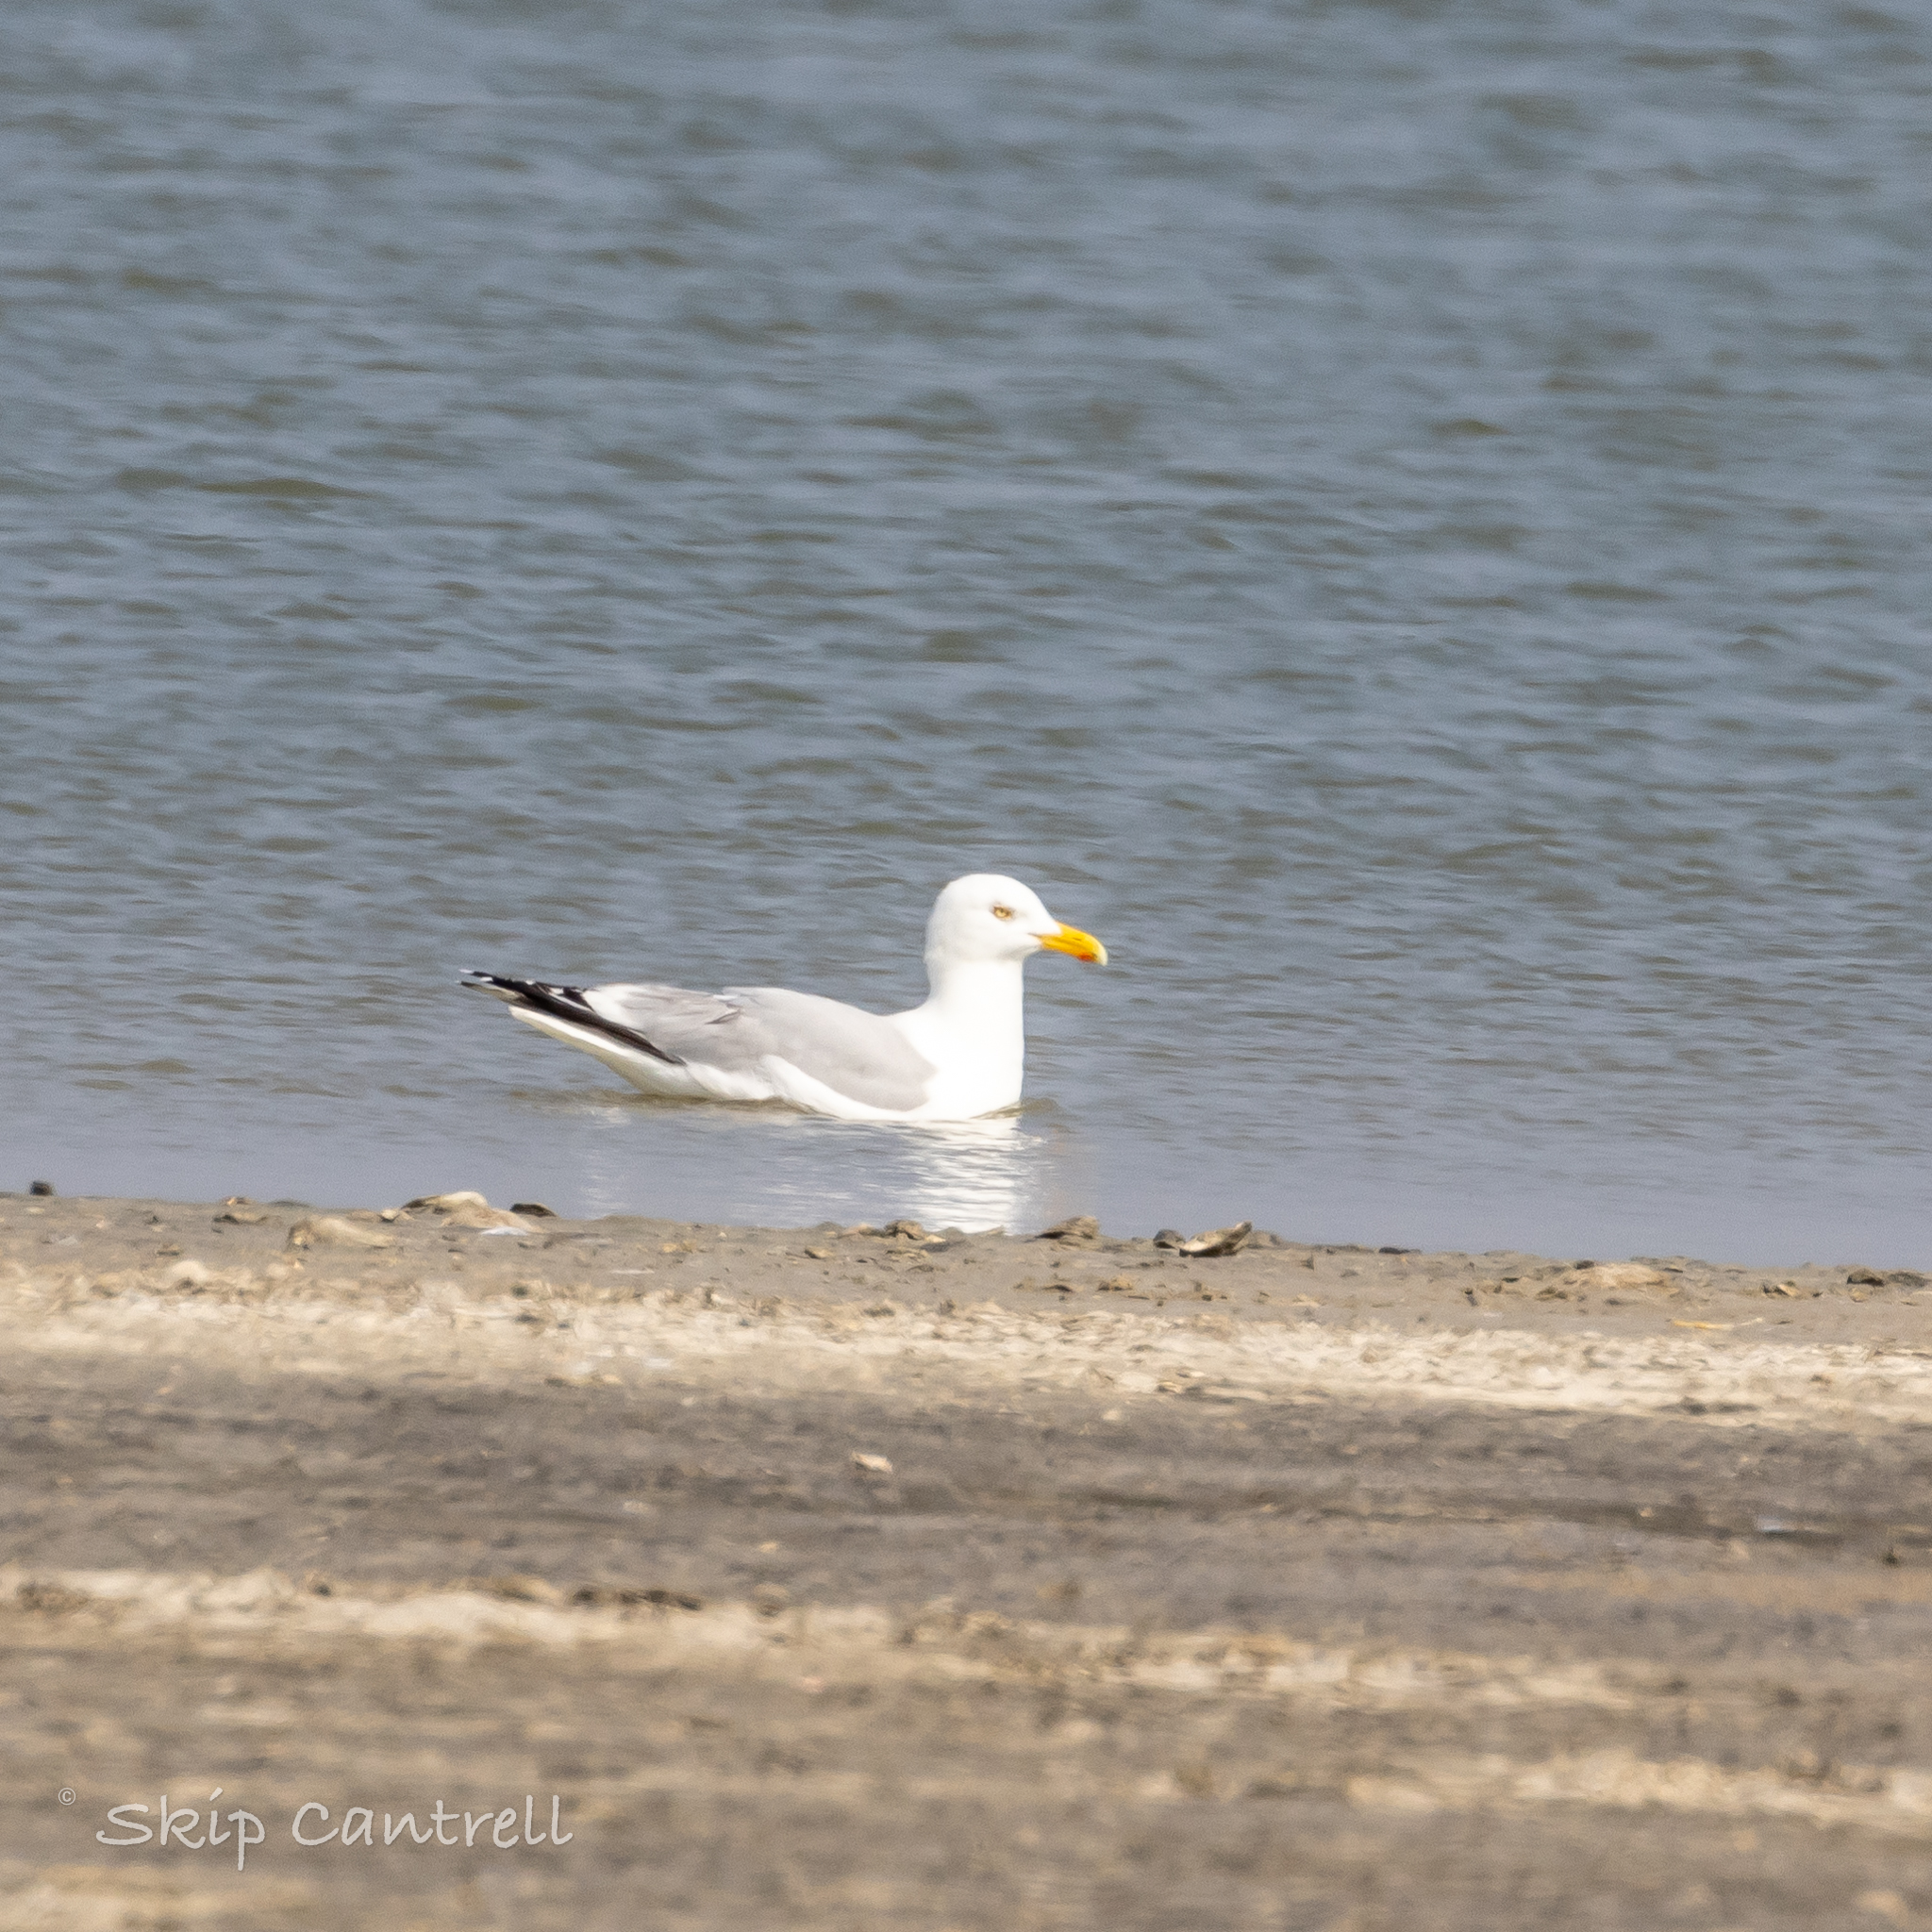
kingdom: Animalia
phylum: Chordata
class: Aves
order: Charadriiformes
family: Laridae
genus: Larus
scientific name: Larus argentatus
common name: Herring gull
